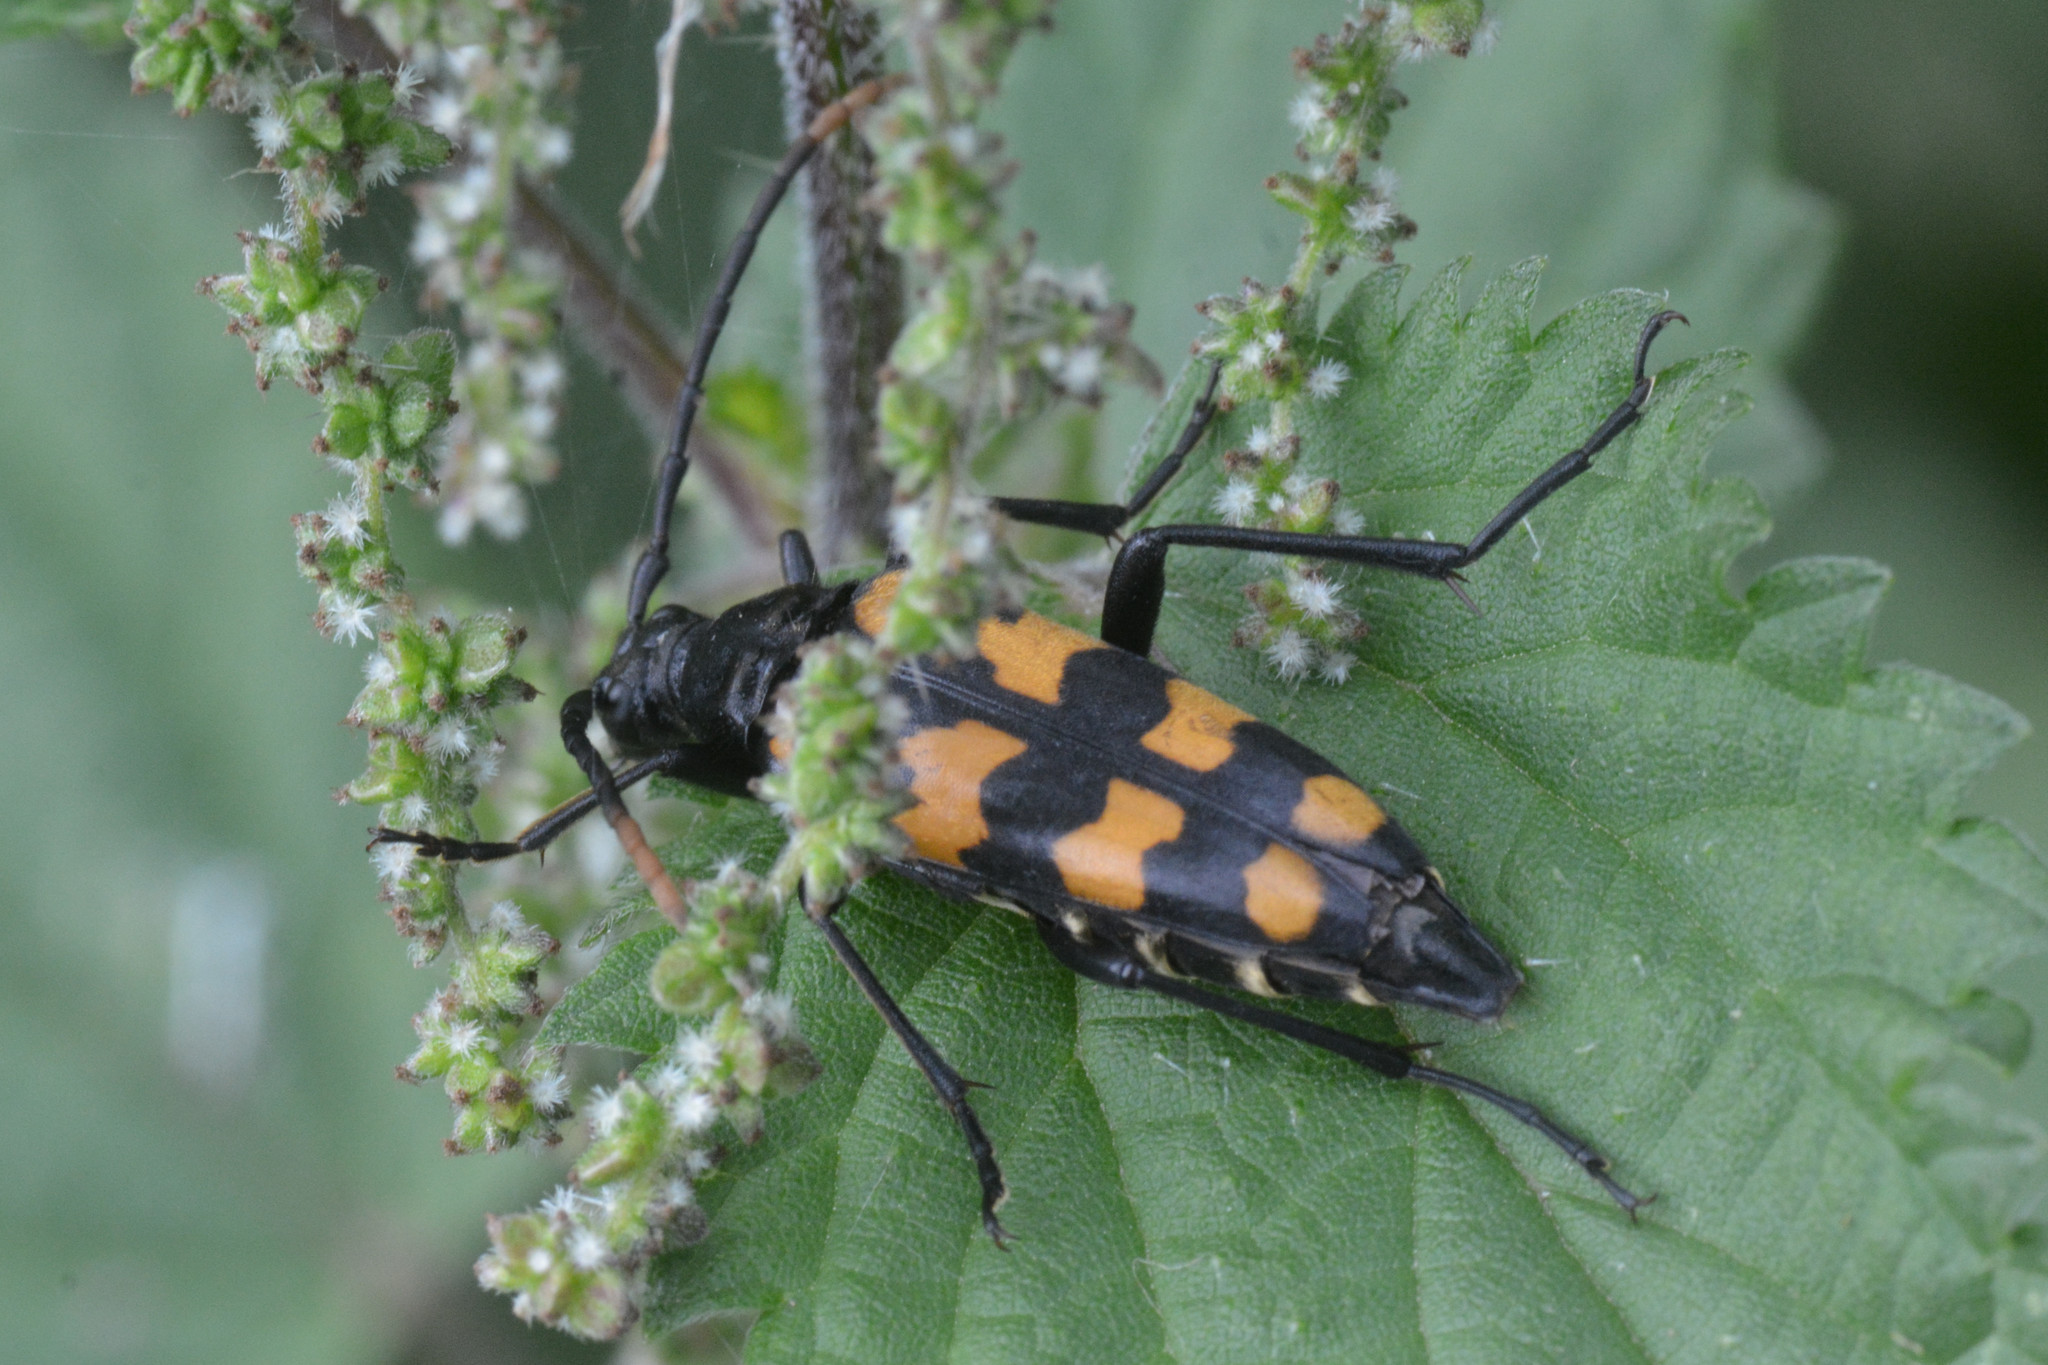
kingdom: Animalia
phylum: Arthropoda
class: Insecta
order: Coleoptera
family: Cerambycidae
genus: Leptura
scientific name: Leptura quadrifasciata
